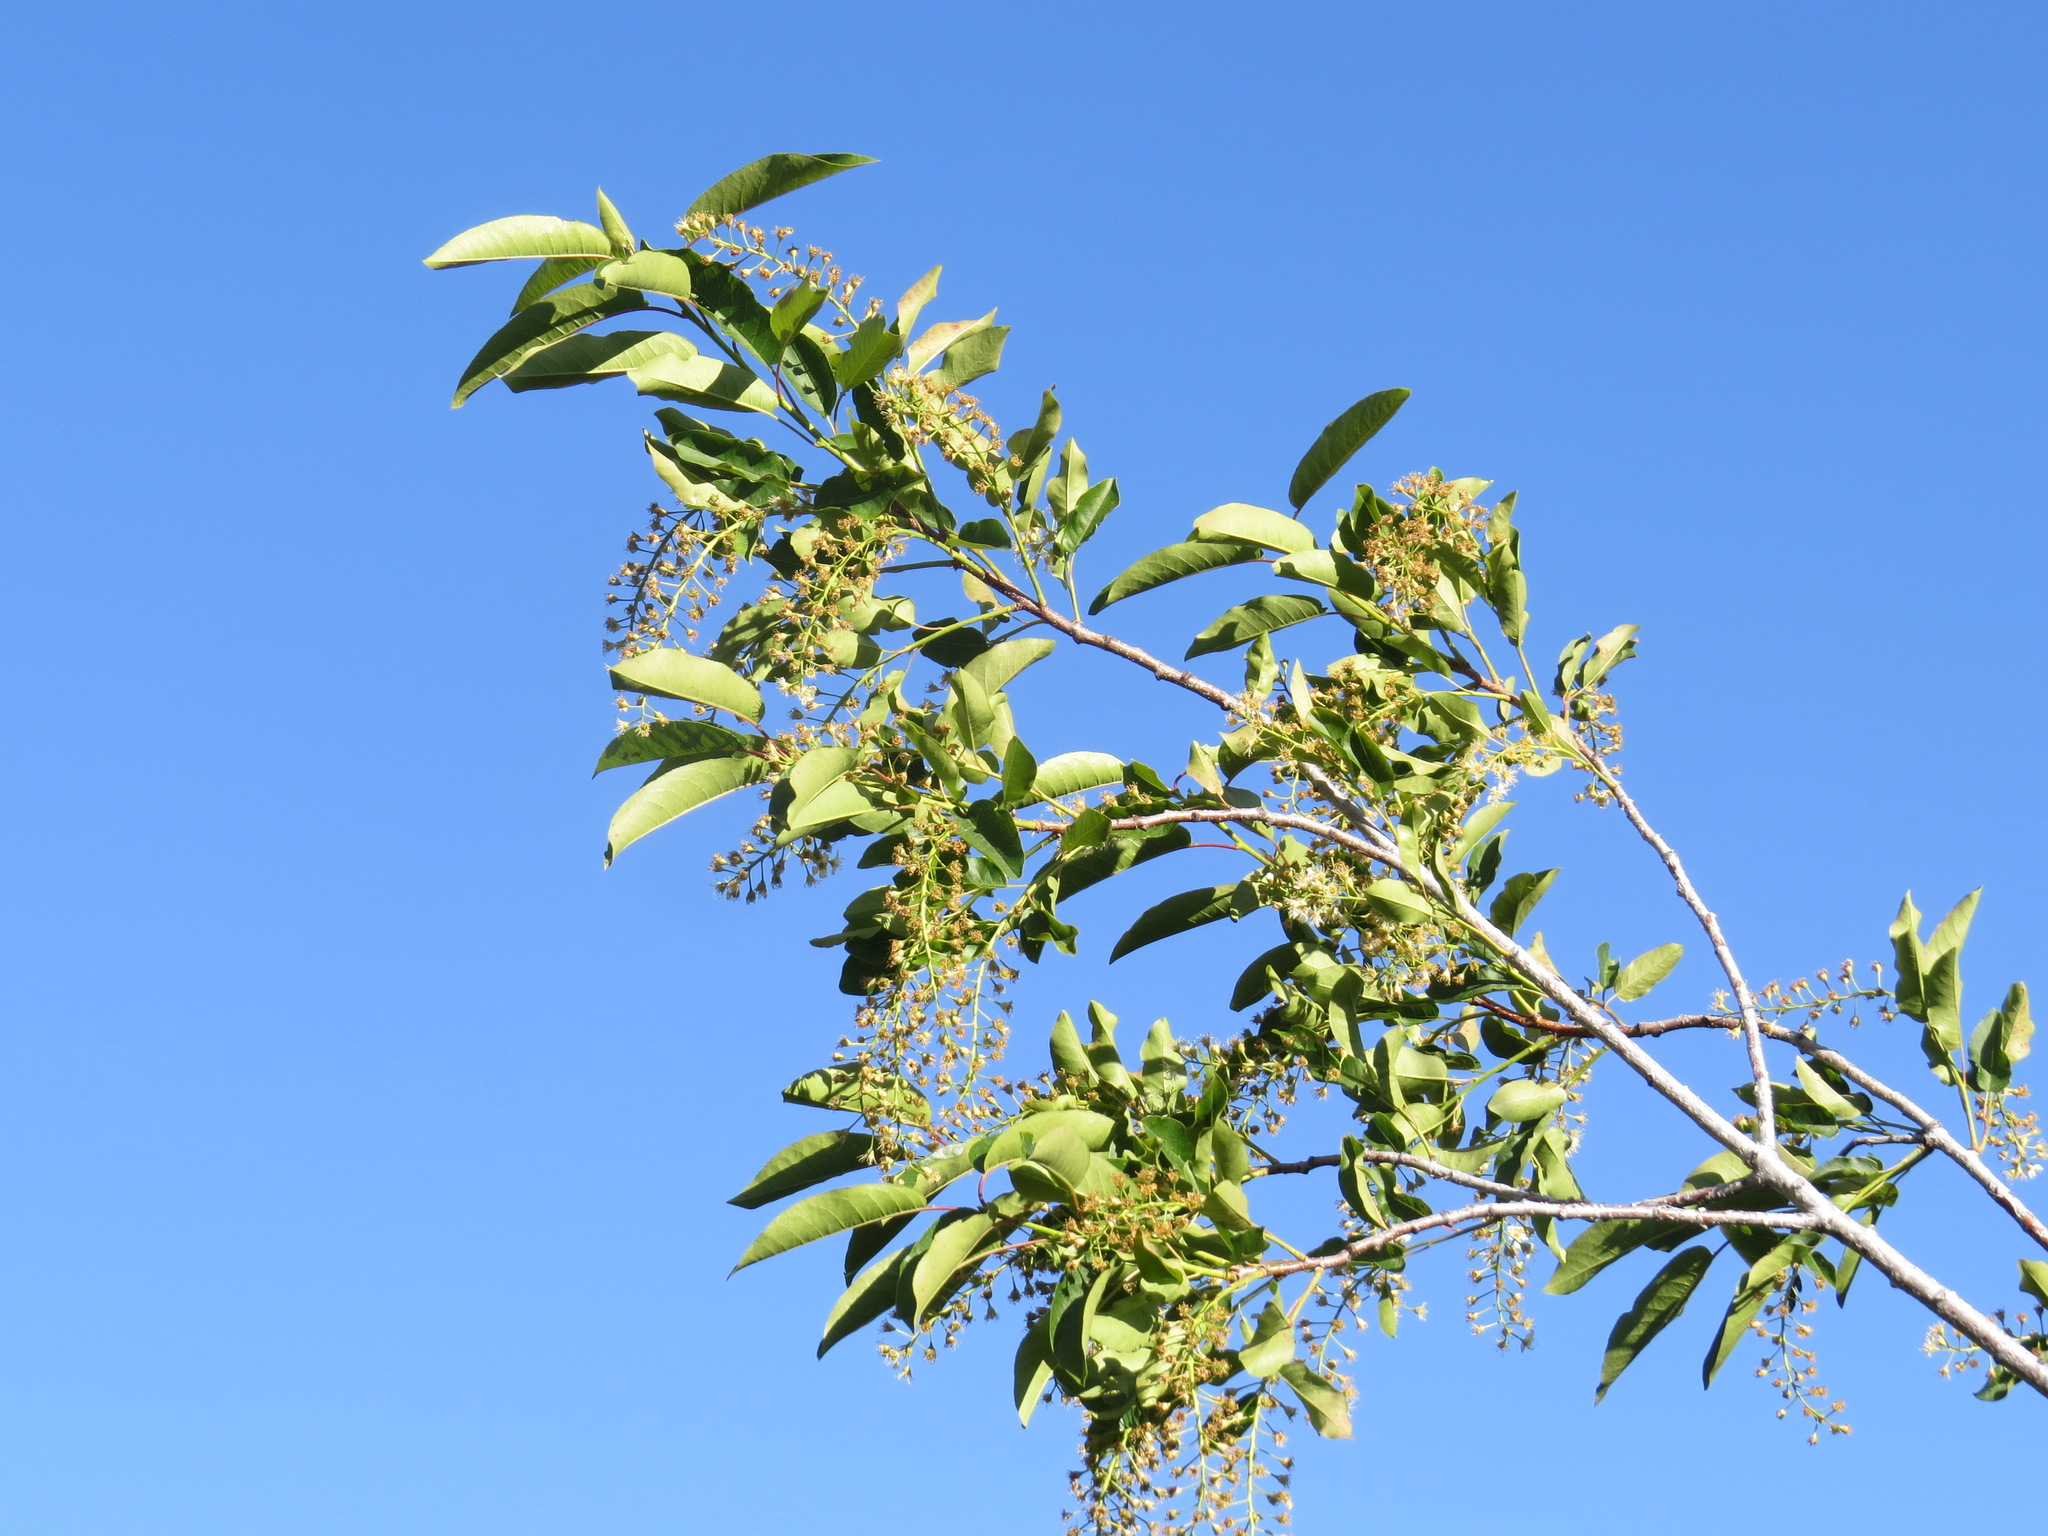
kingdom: Plantae
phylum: Tracheophyta
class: Magnoliopsida
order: Rosales
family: Rosaceae
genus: Prunus
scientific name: Prunus virginiana
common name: Chokecherry
